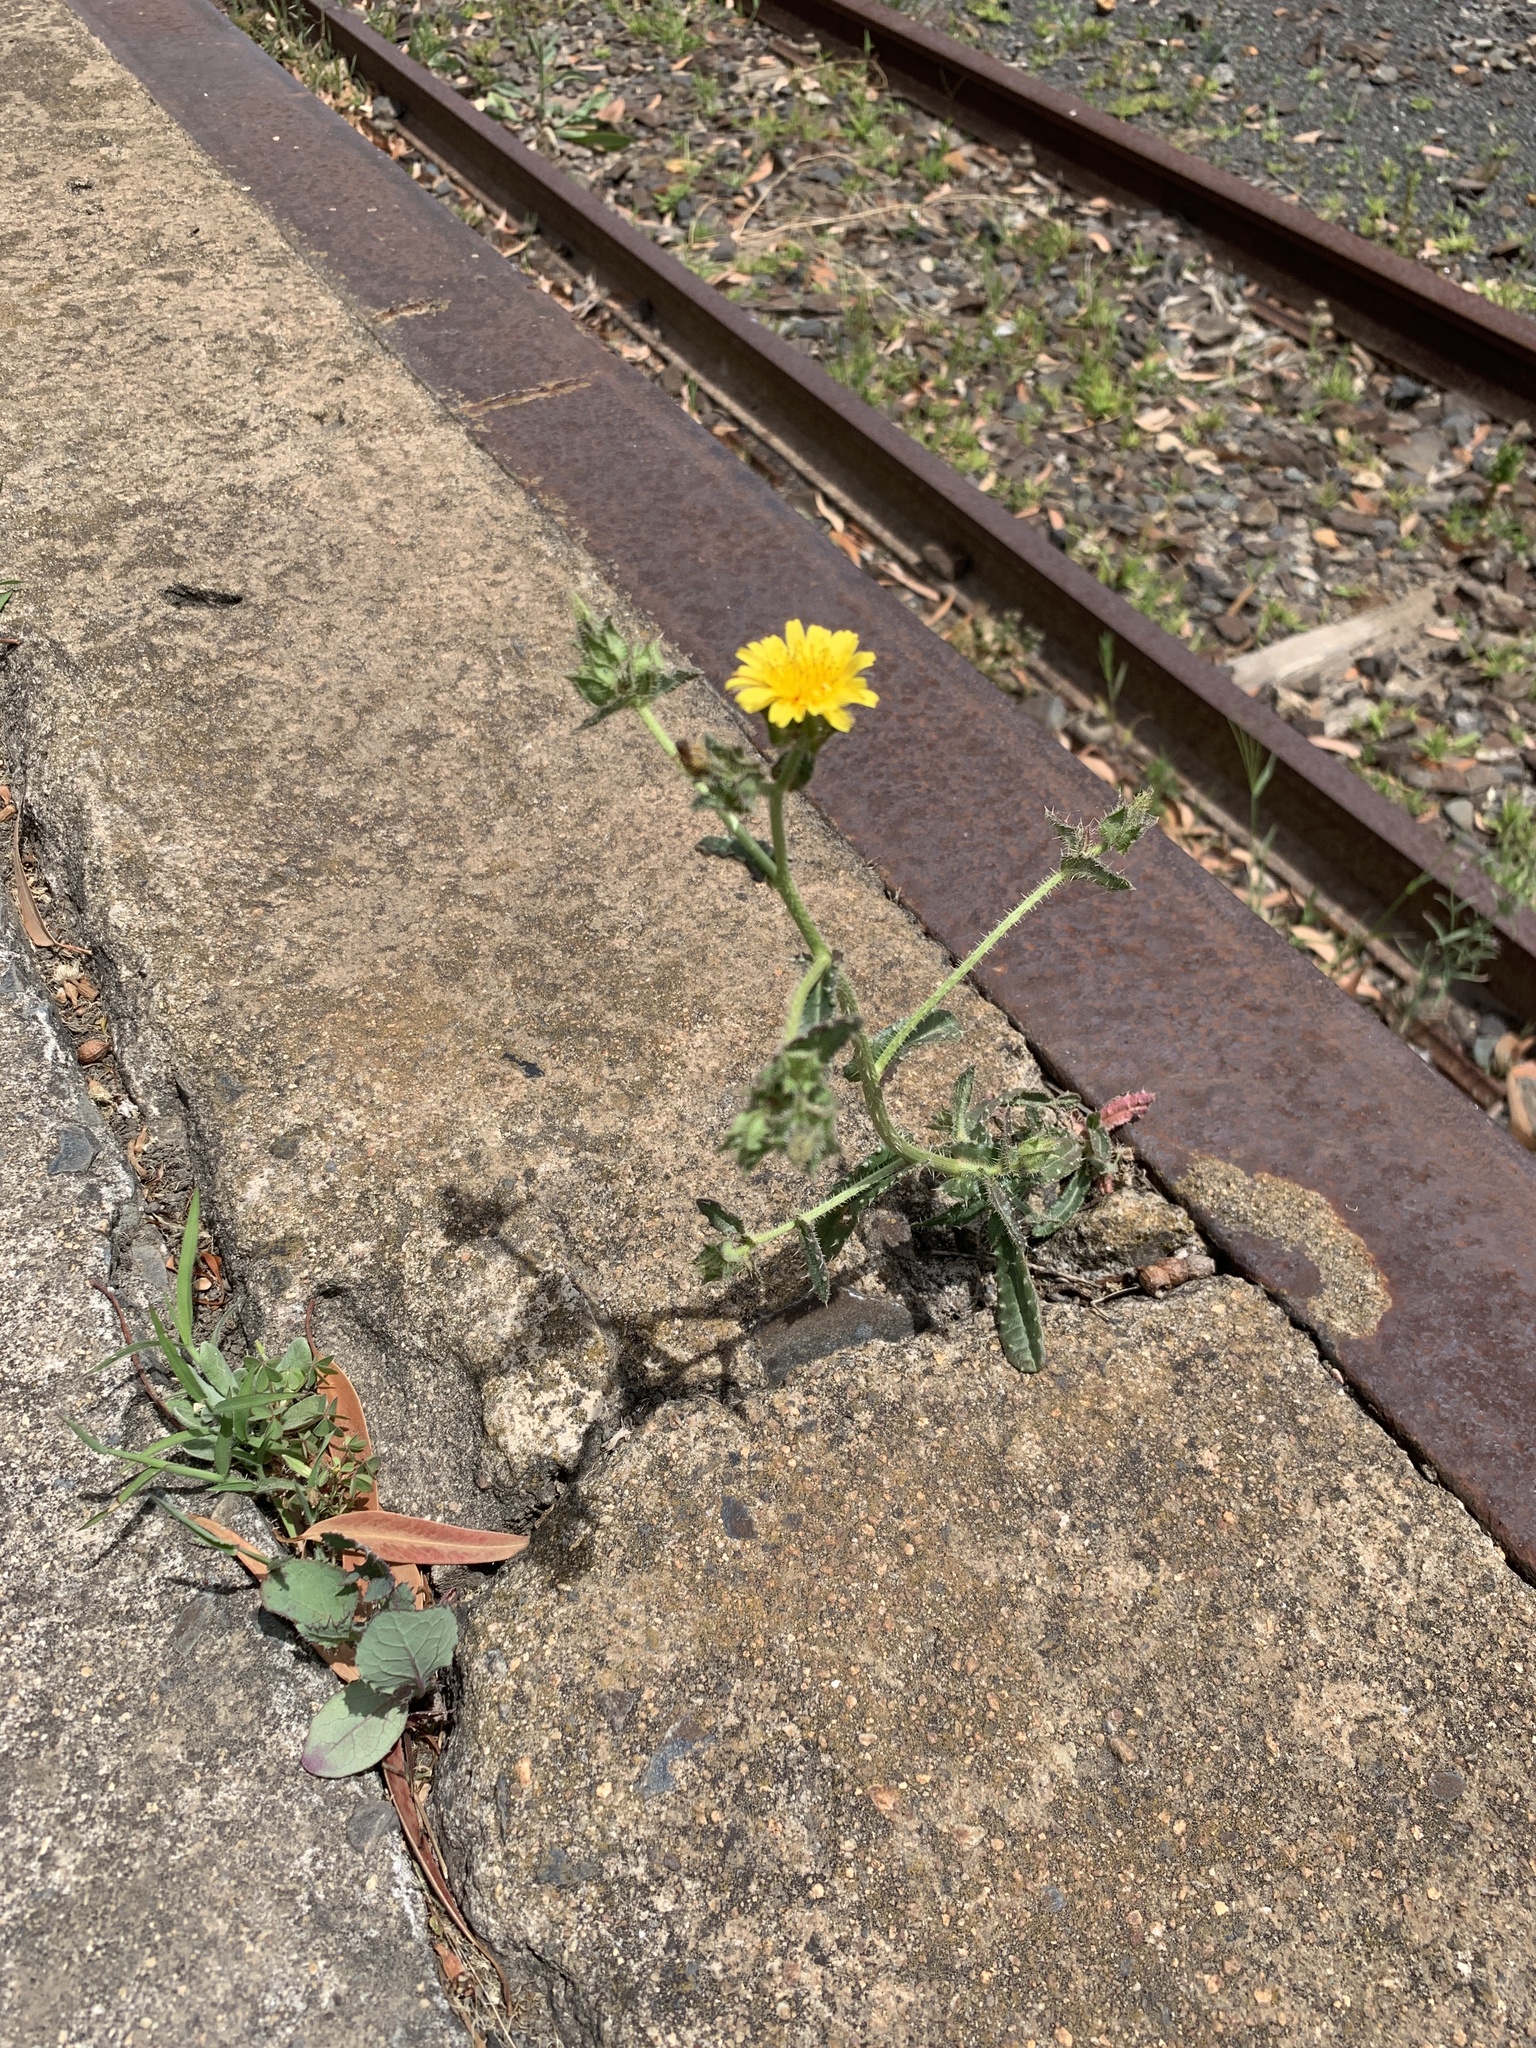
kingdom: Plantae
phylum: Tracheophyta
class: Magnoliopsida
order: Asterales
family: Asteraceae
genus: Helminthotheca
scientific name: Helminthotheca echioides
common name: Ox-tongue
